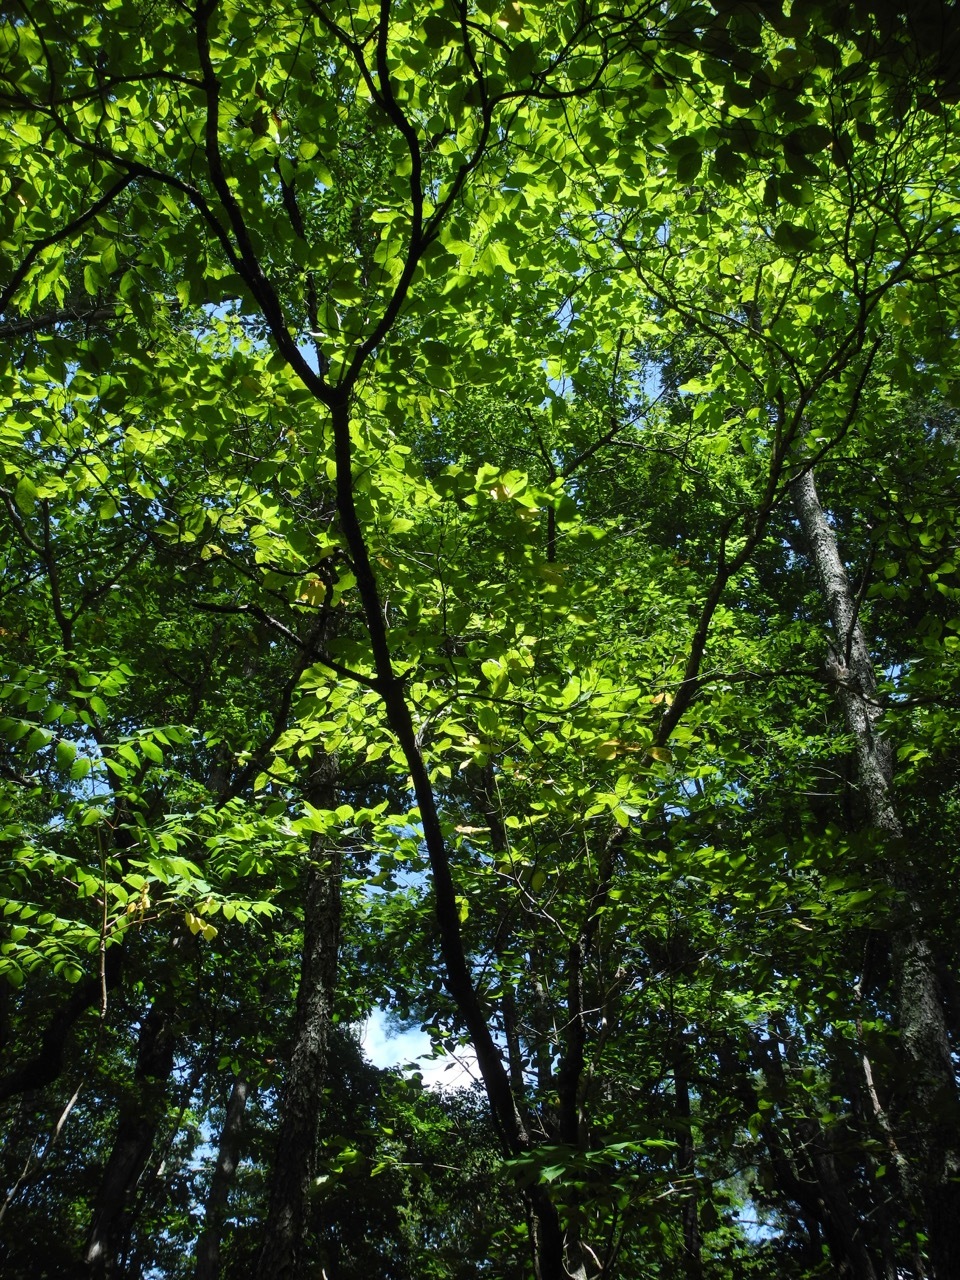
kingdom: Plantae
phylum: Tracheophyta
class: Magnoliopsida
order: Cornales
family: Cornaceae
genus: Cornus
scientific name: Cornus florida
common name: Flowering dogwood
